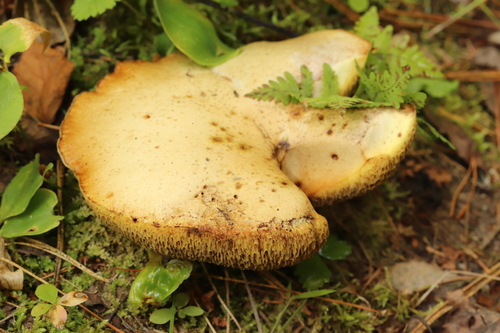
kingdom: Fungi
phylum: Basidiomycota
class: Agaricomycetes
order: Boletales
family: Suillaceae
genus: Suillus
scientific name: Suillus placidus
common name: Slippery white bolete
